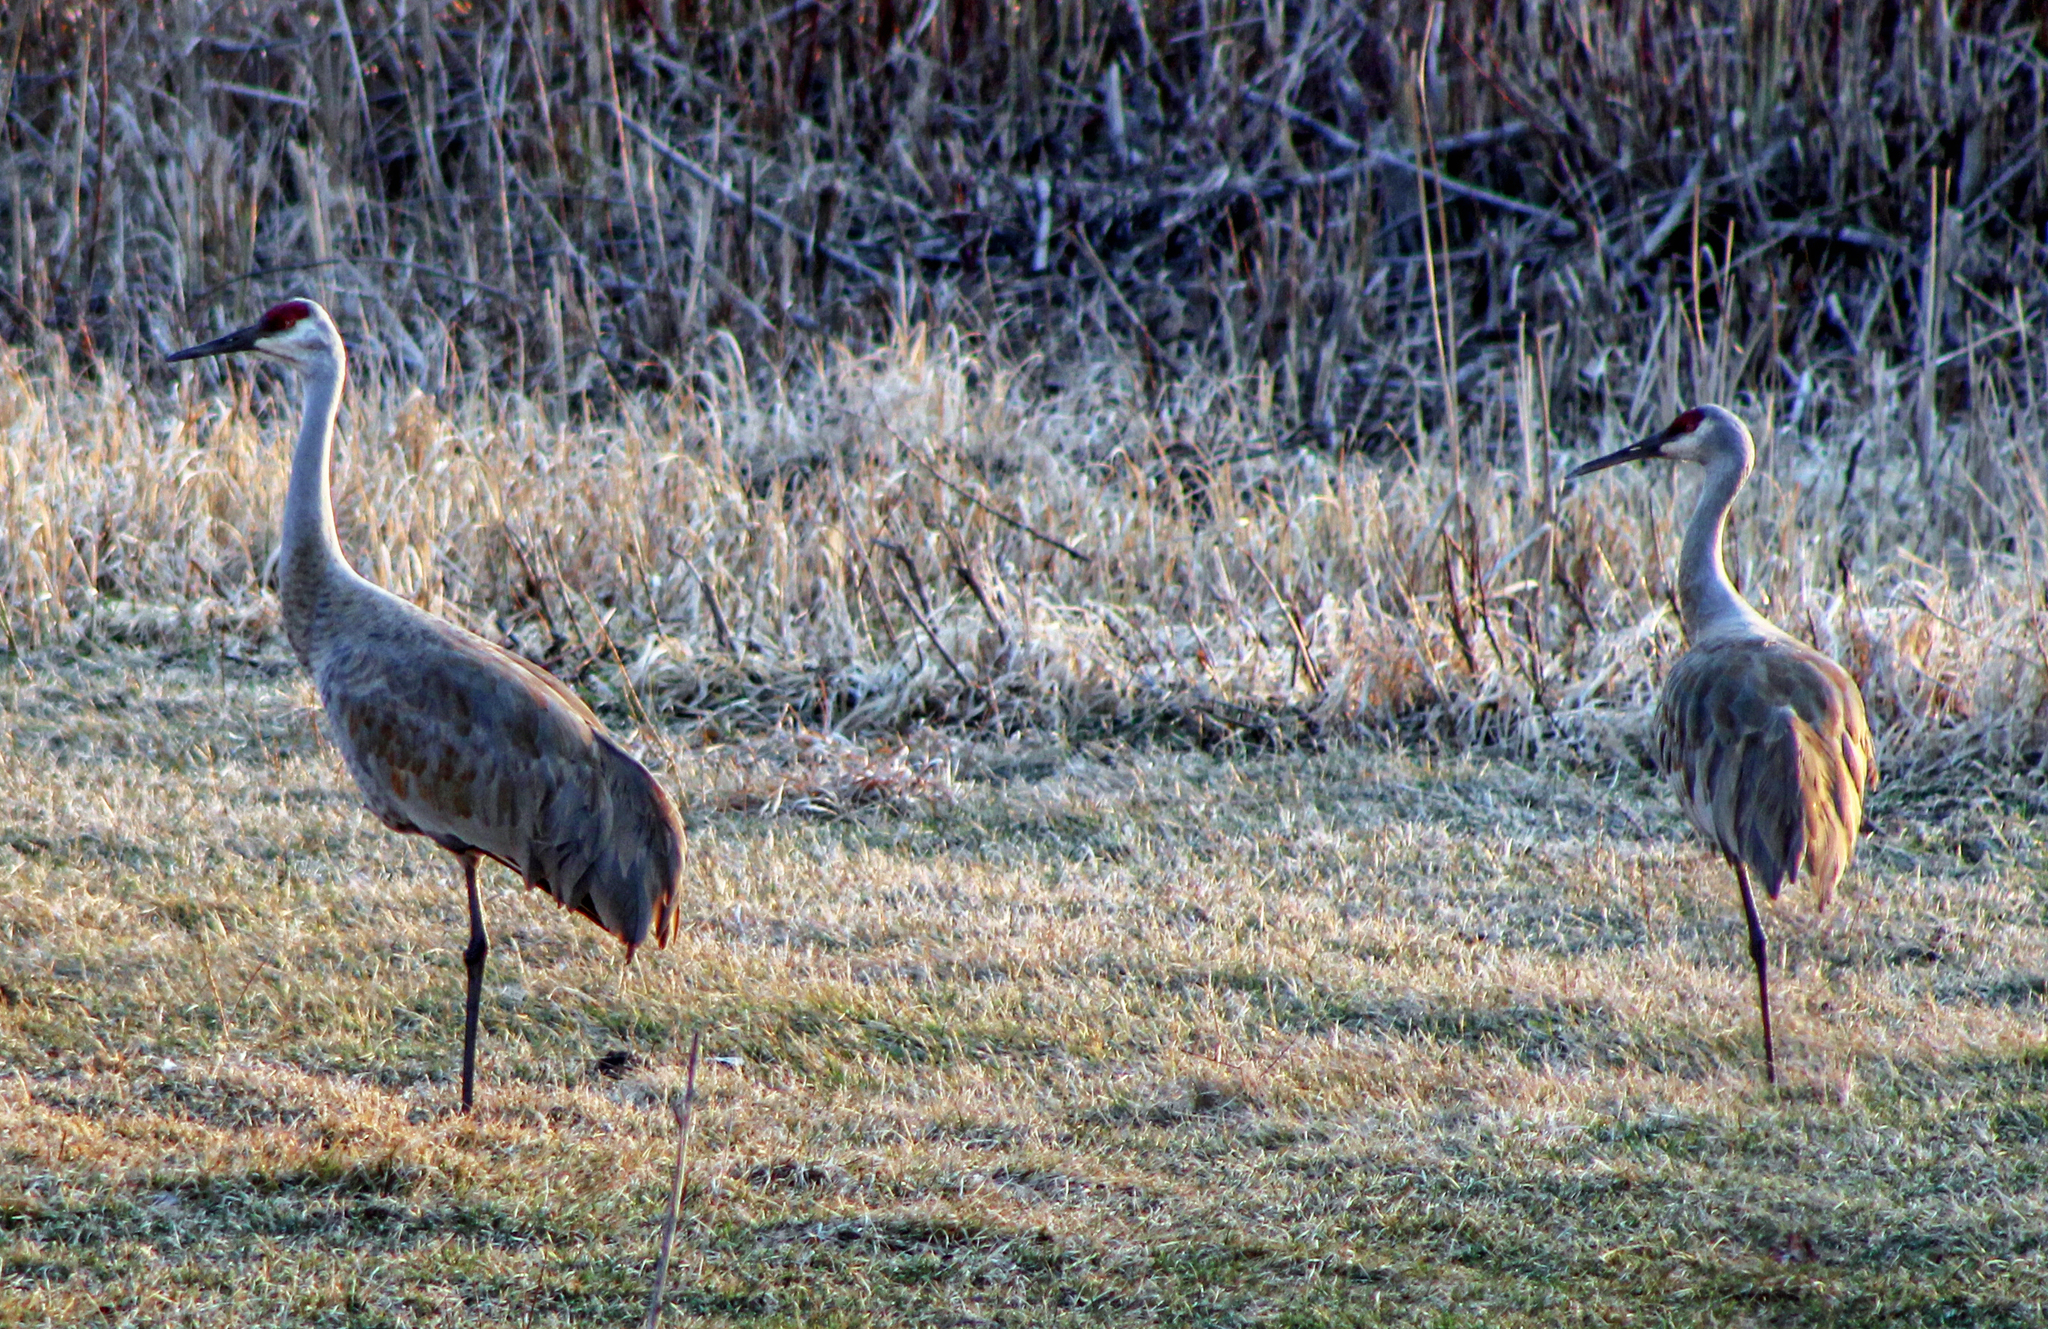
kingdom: Animalia
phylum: Chordata
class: Aves
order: Gruiformes
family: Gruidae
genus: Grus
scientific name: Grus canadensis
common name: Sandhill crane
